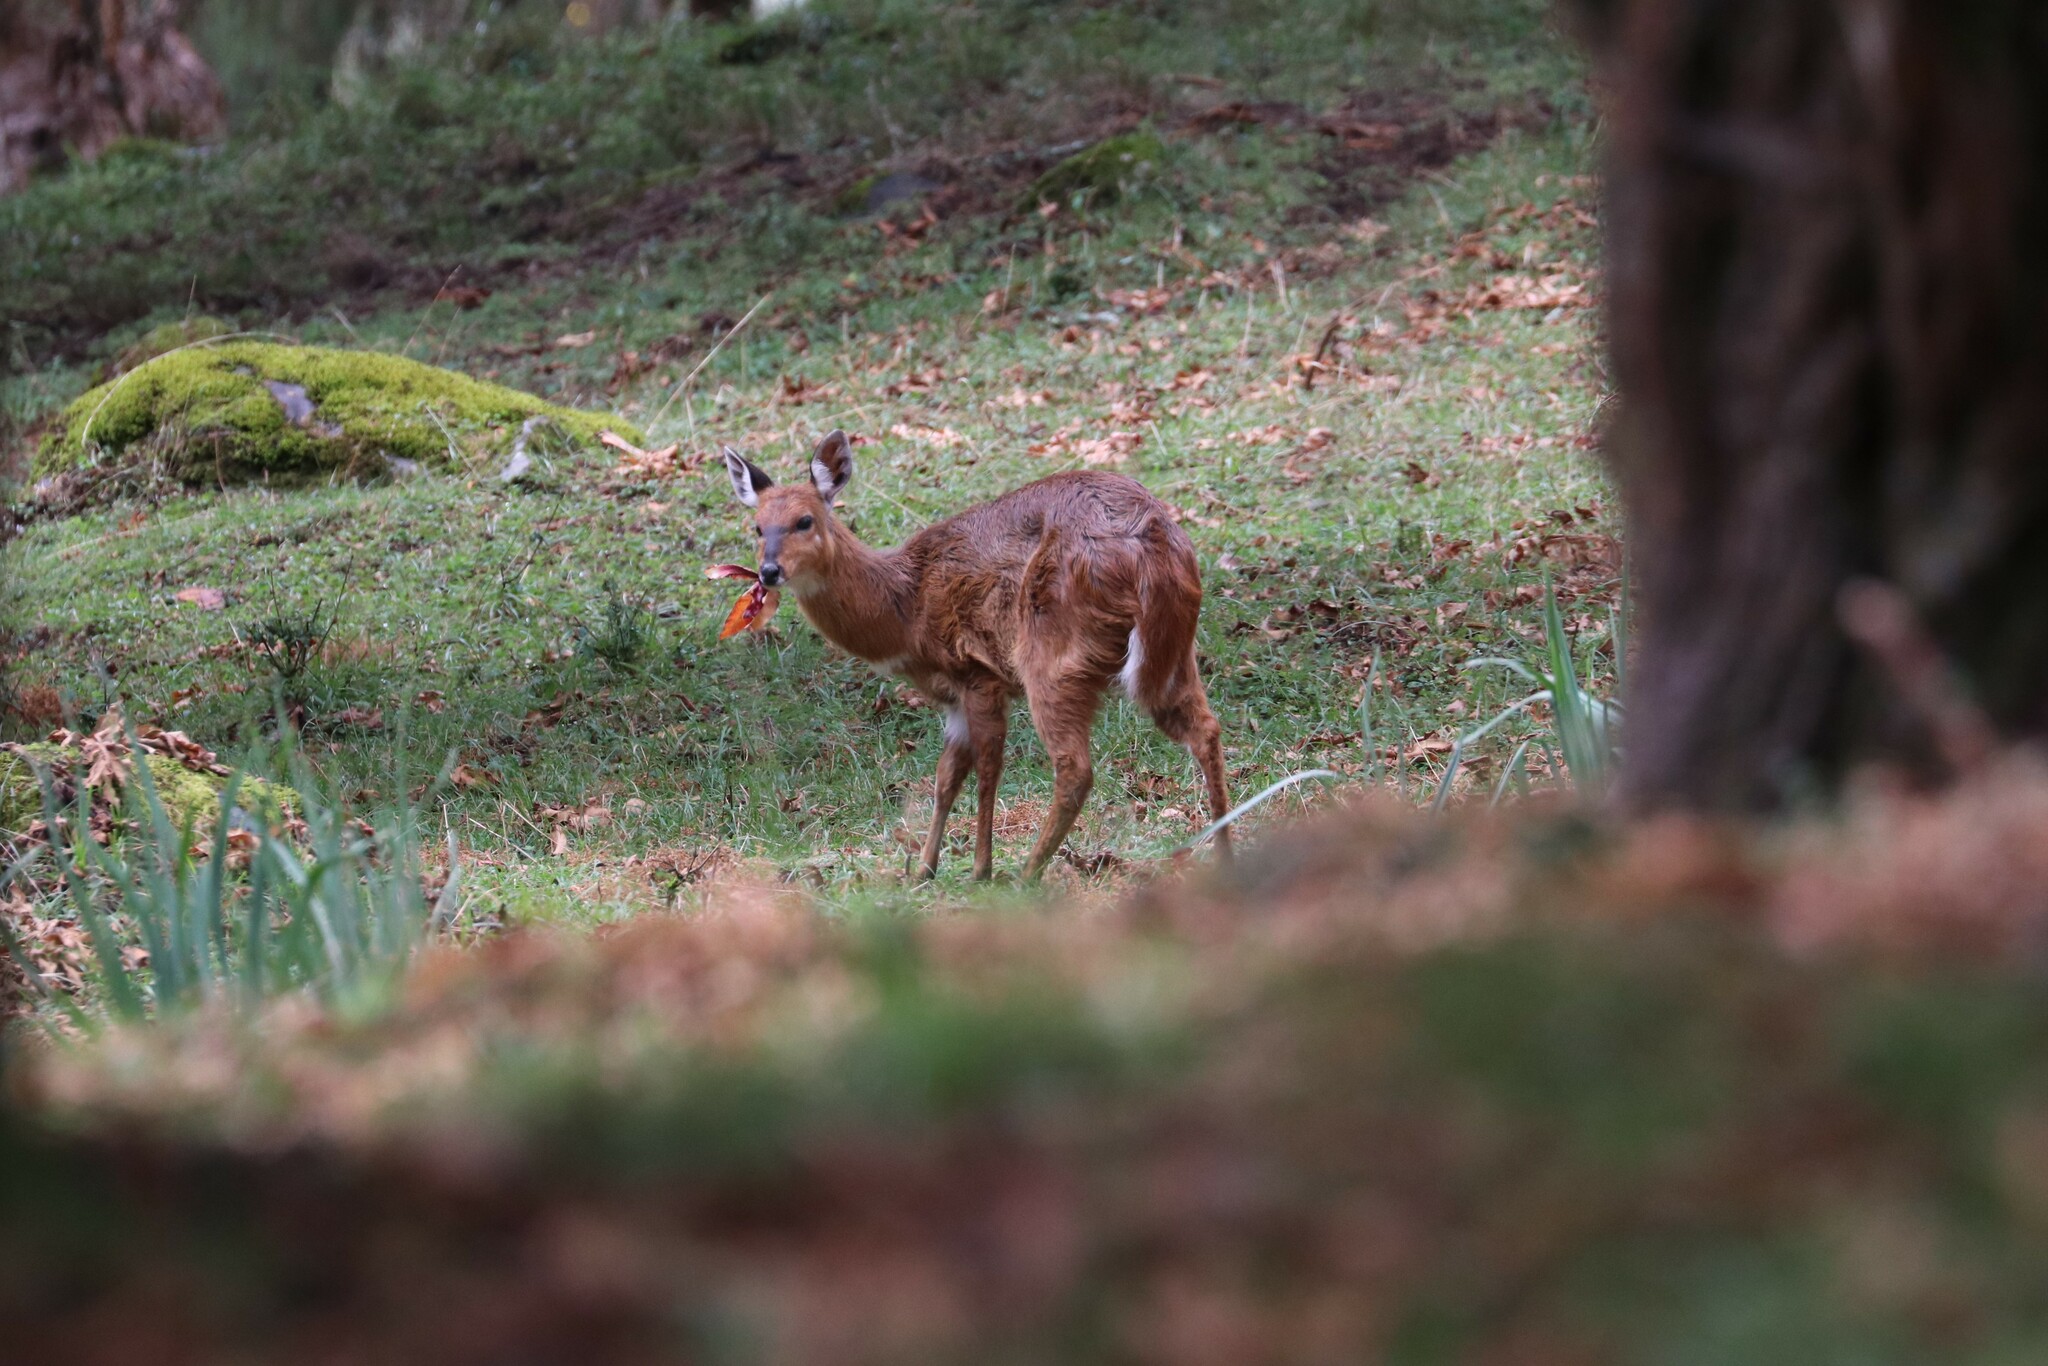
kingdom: Animalia
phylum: Chordata
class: Mammalia
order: Artiodactyla
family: Bovidae
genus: Tragelaphus
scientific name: Tragelaphus scriptus
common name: Bushbuck
